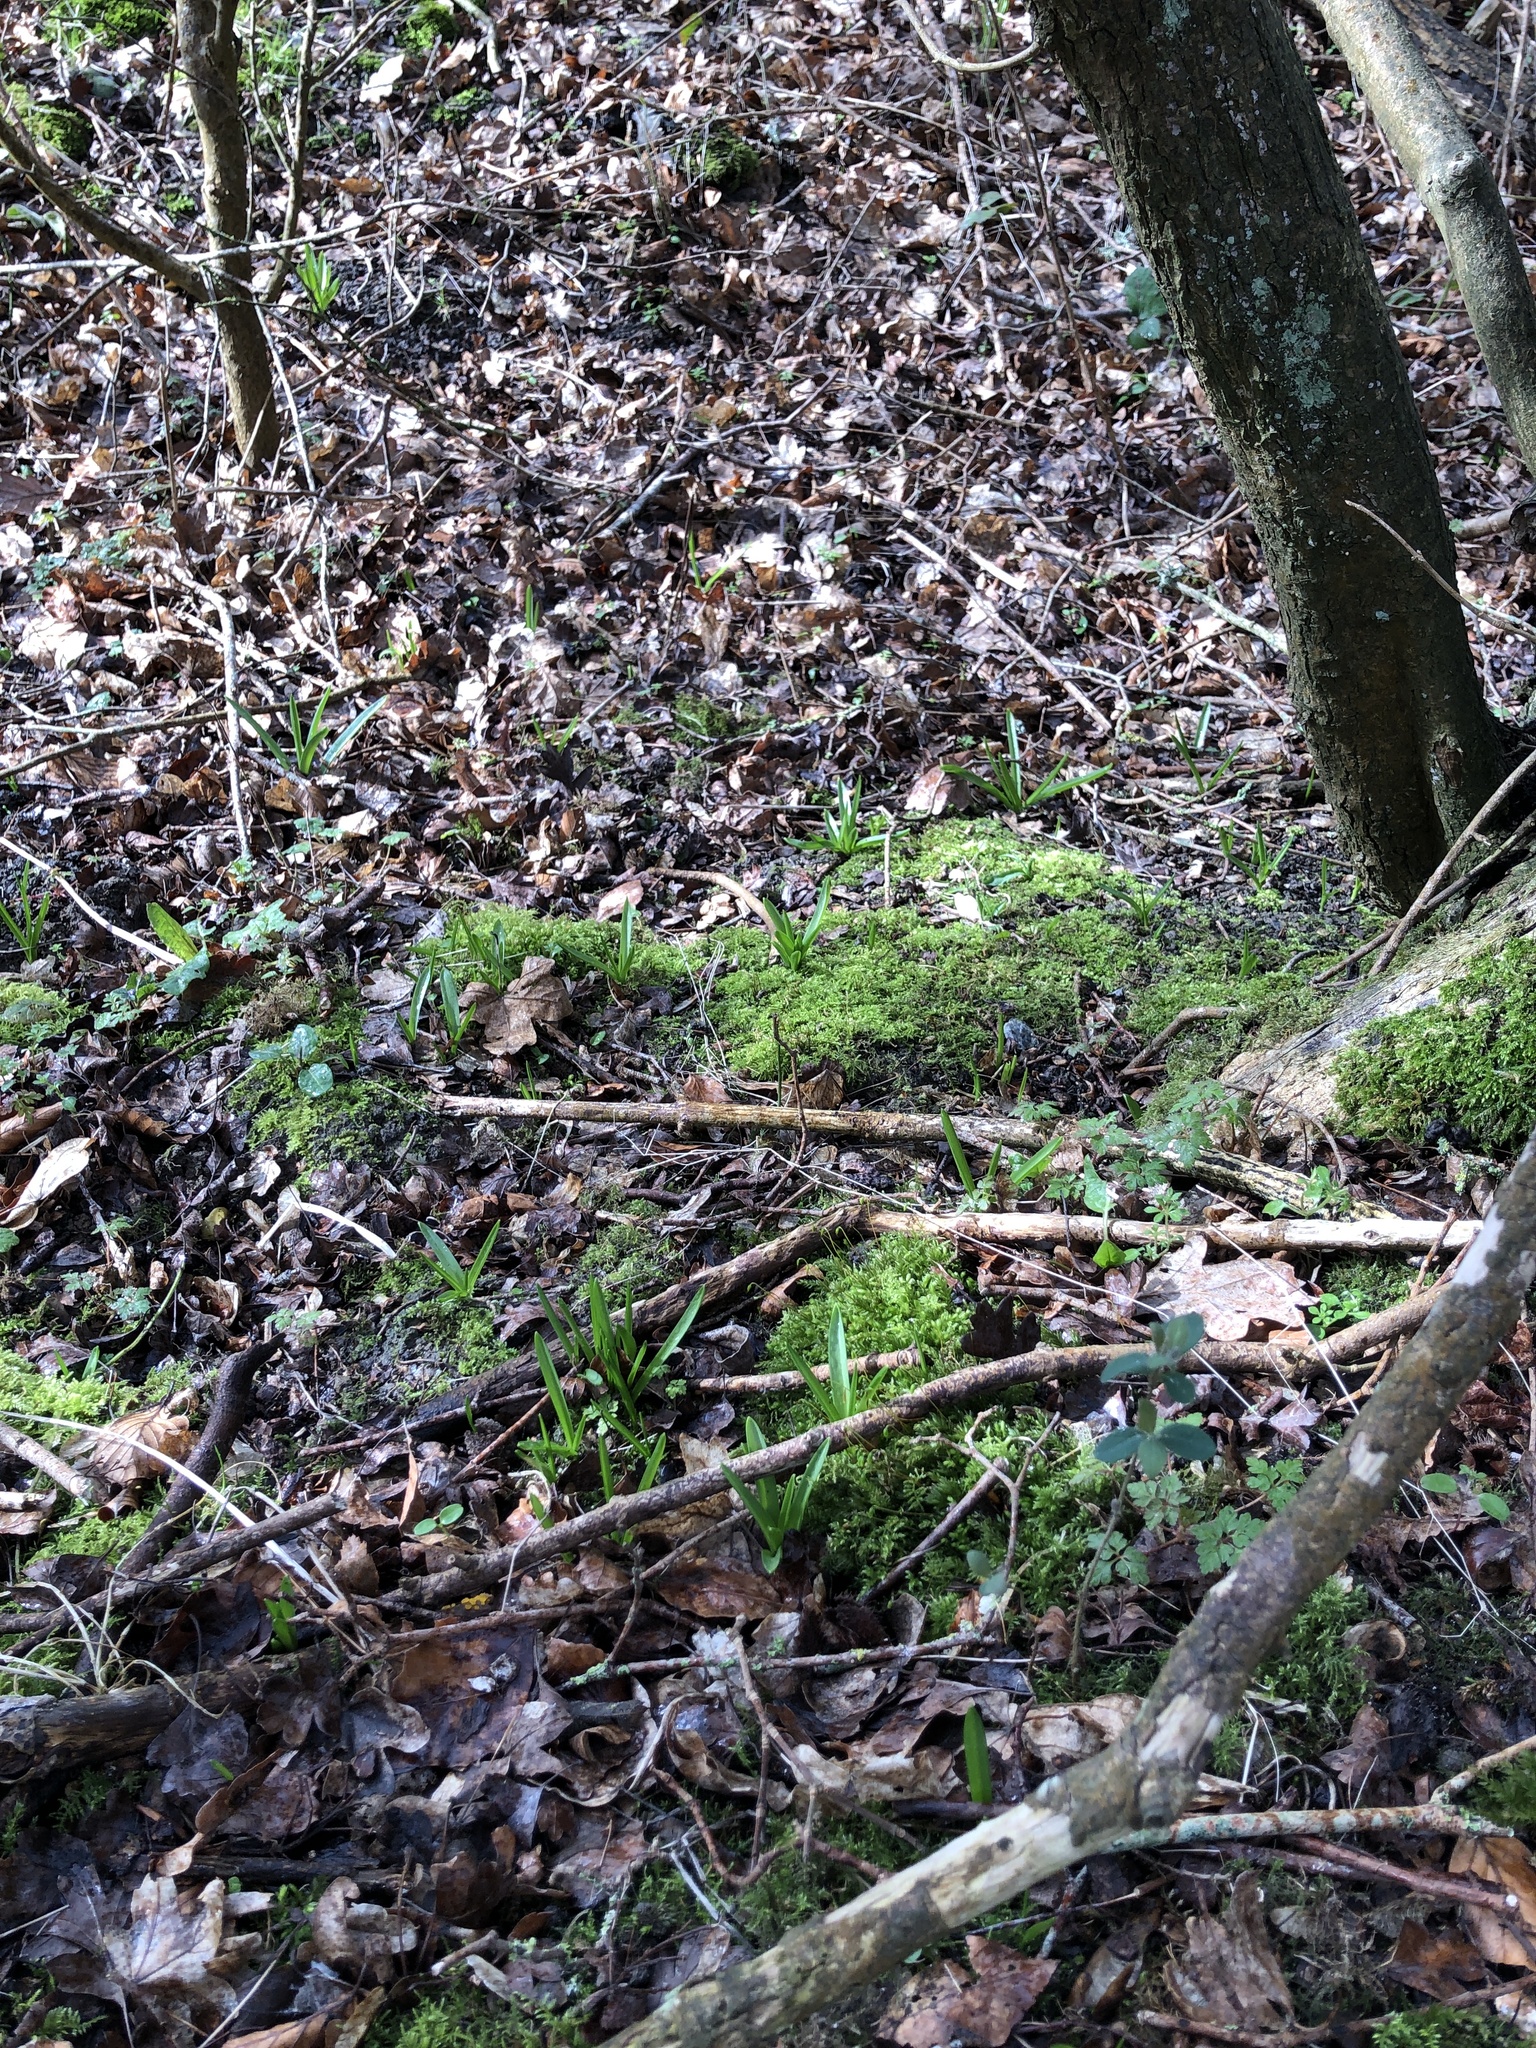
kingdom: Plantae
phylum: Bryophyta
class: Bryopsida
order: Bryales
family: Mniaceae
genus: Mnium
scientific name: Mnium hornum
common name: Swan's-neck leafy moss
